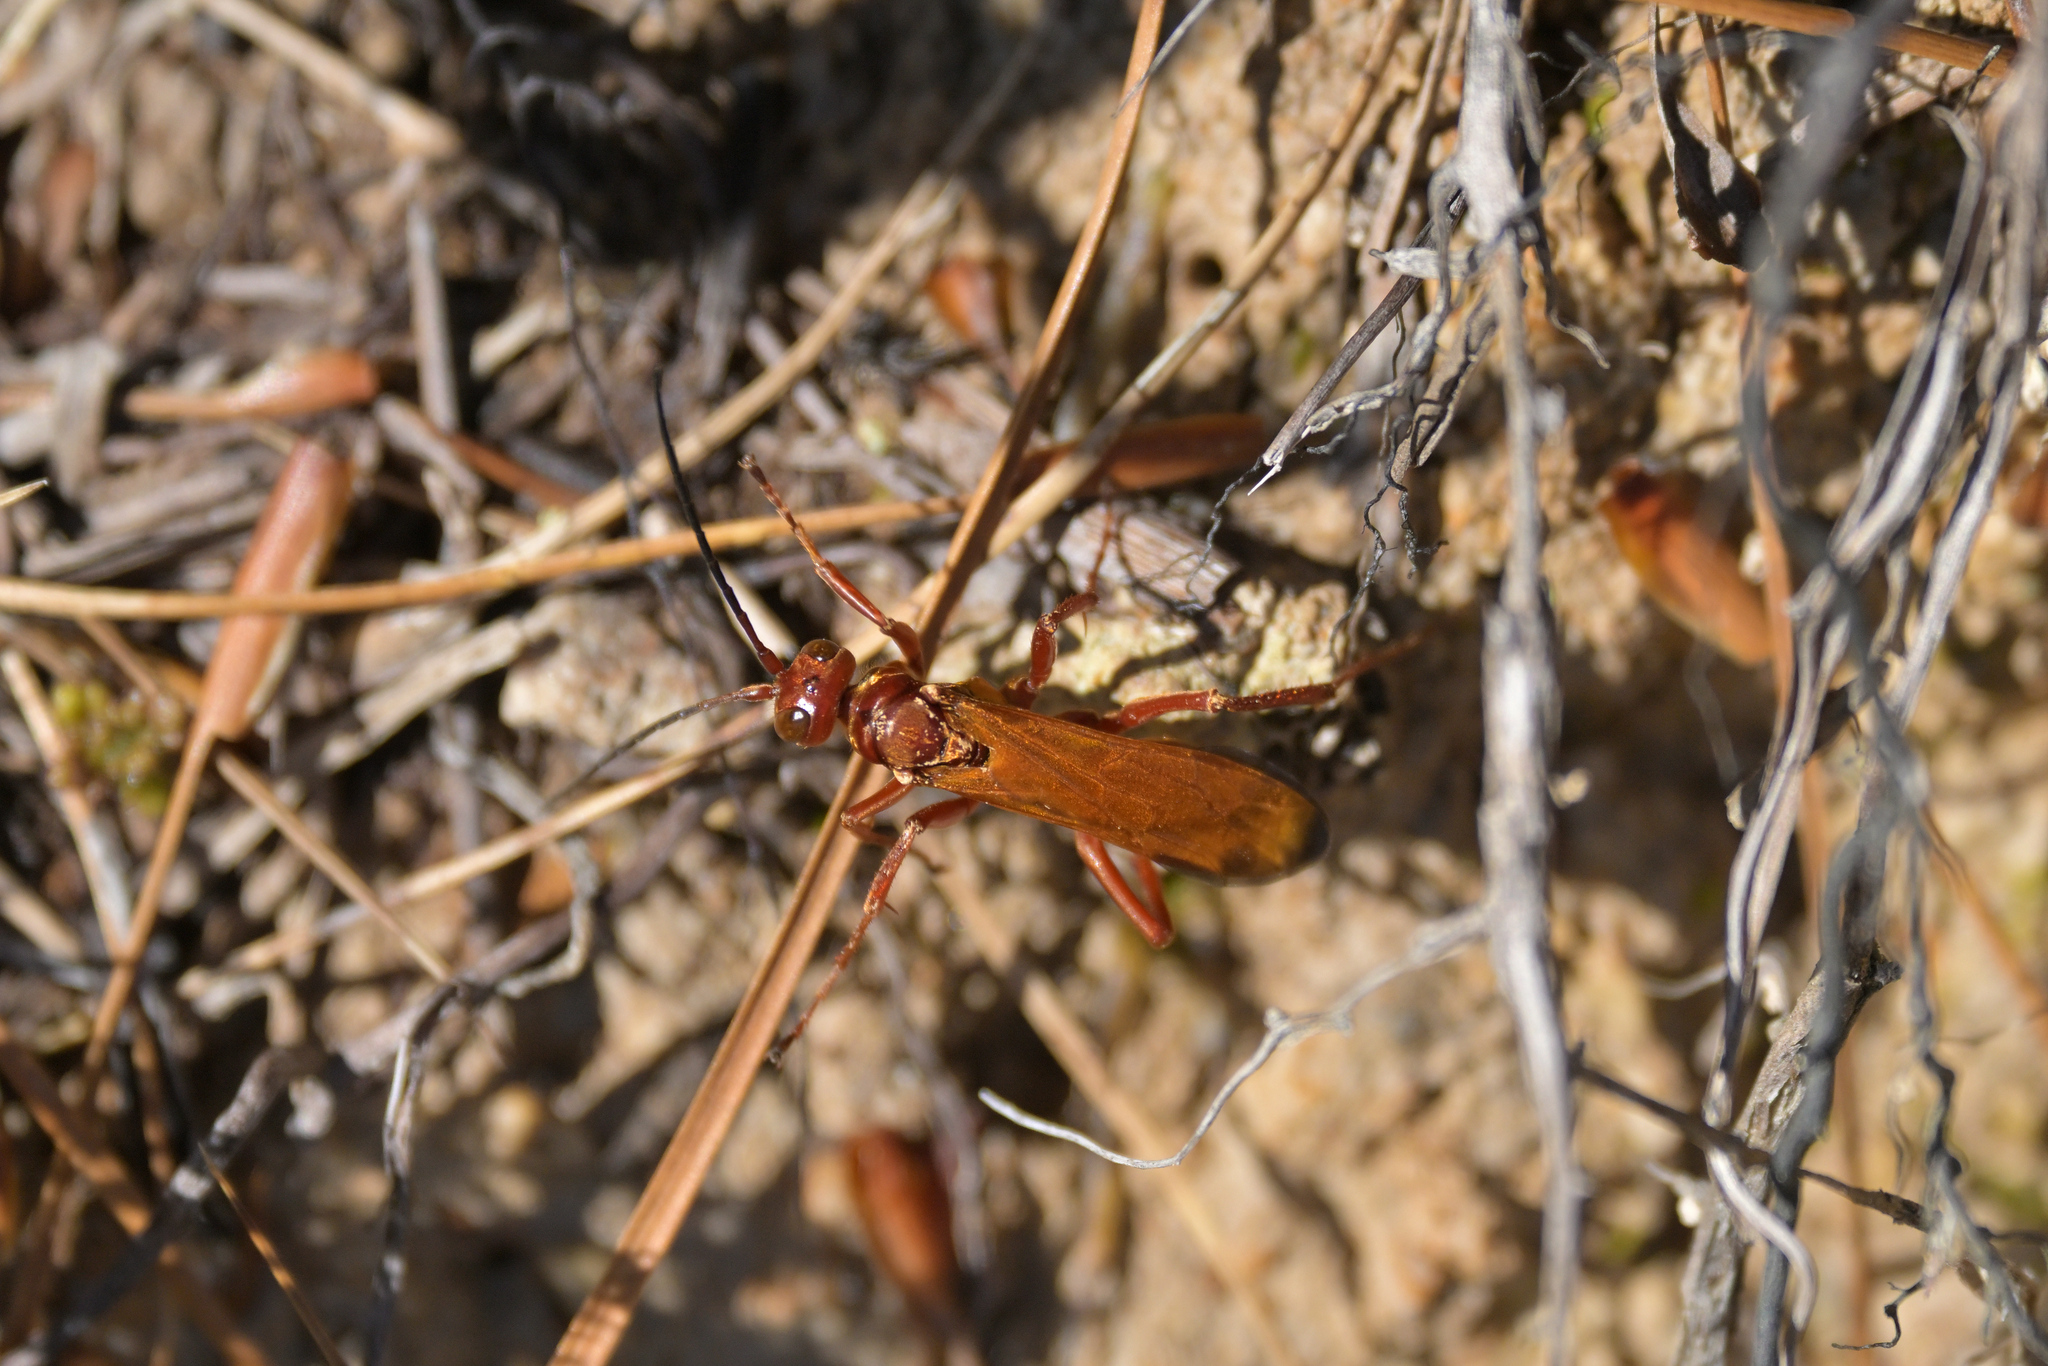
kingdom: Animalia
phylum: Arthropoda
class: Insecta
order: Hymenoptera
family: Pompilidae
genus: Sphictostethus
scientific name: Sphictostethus nitidus
